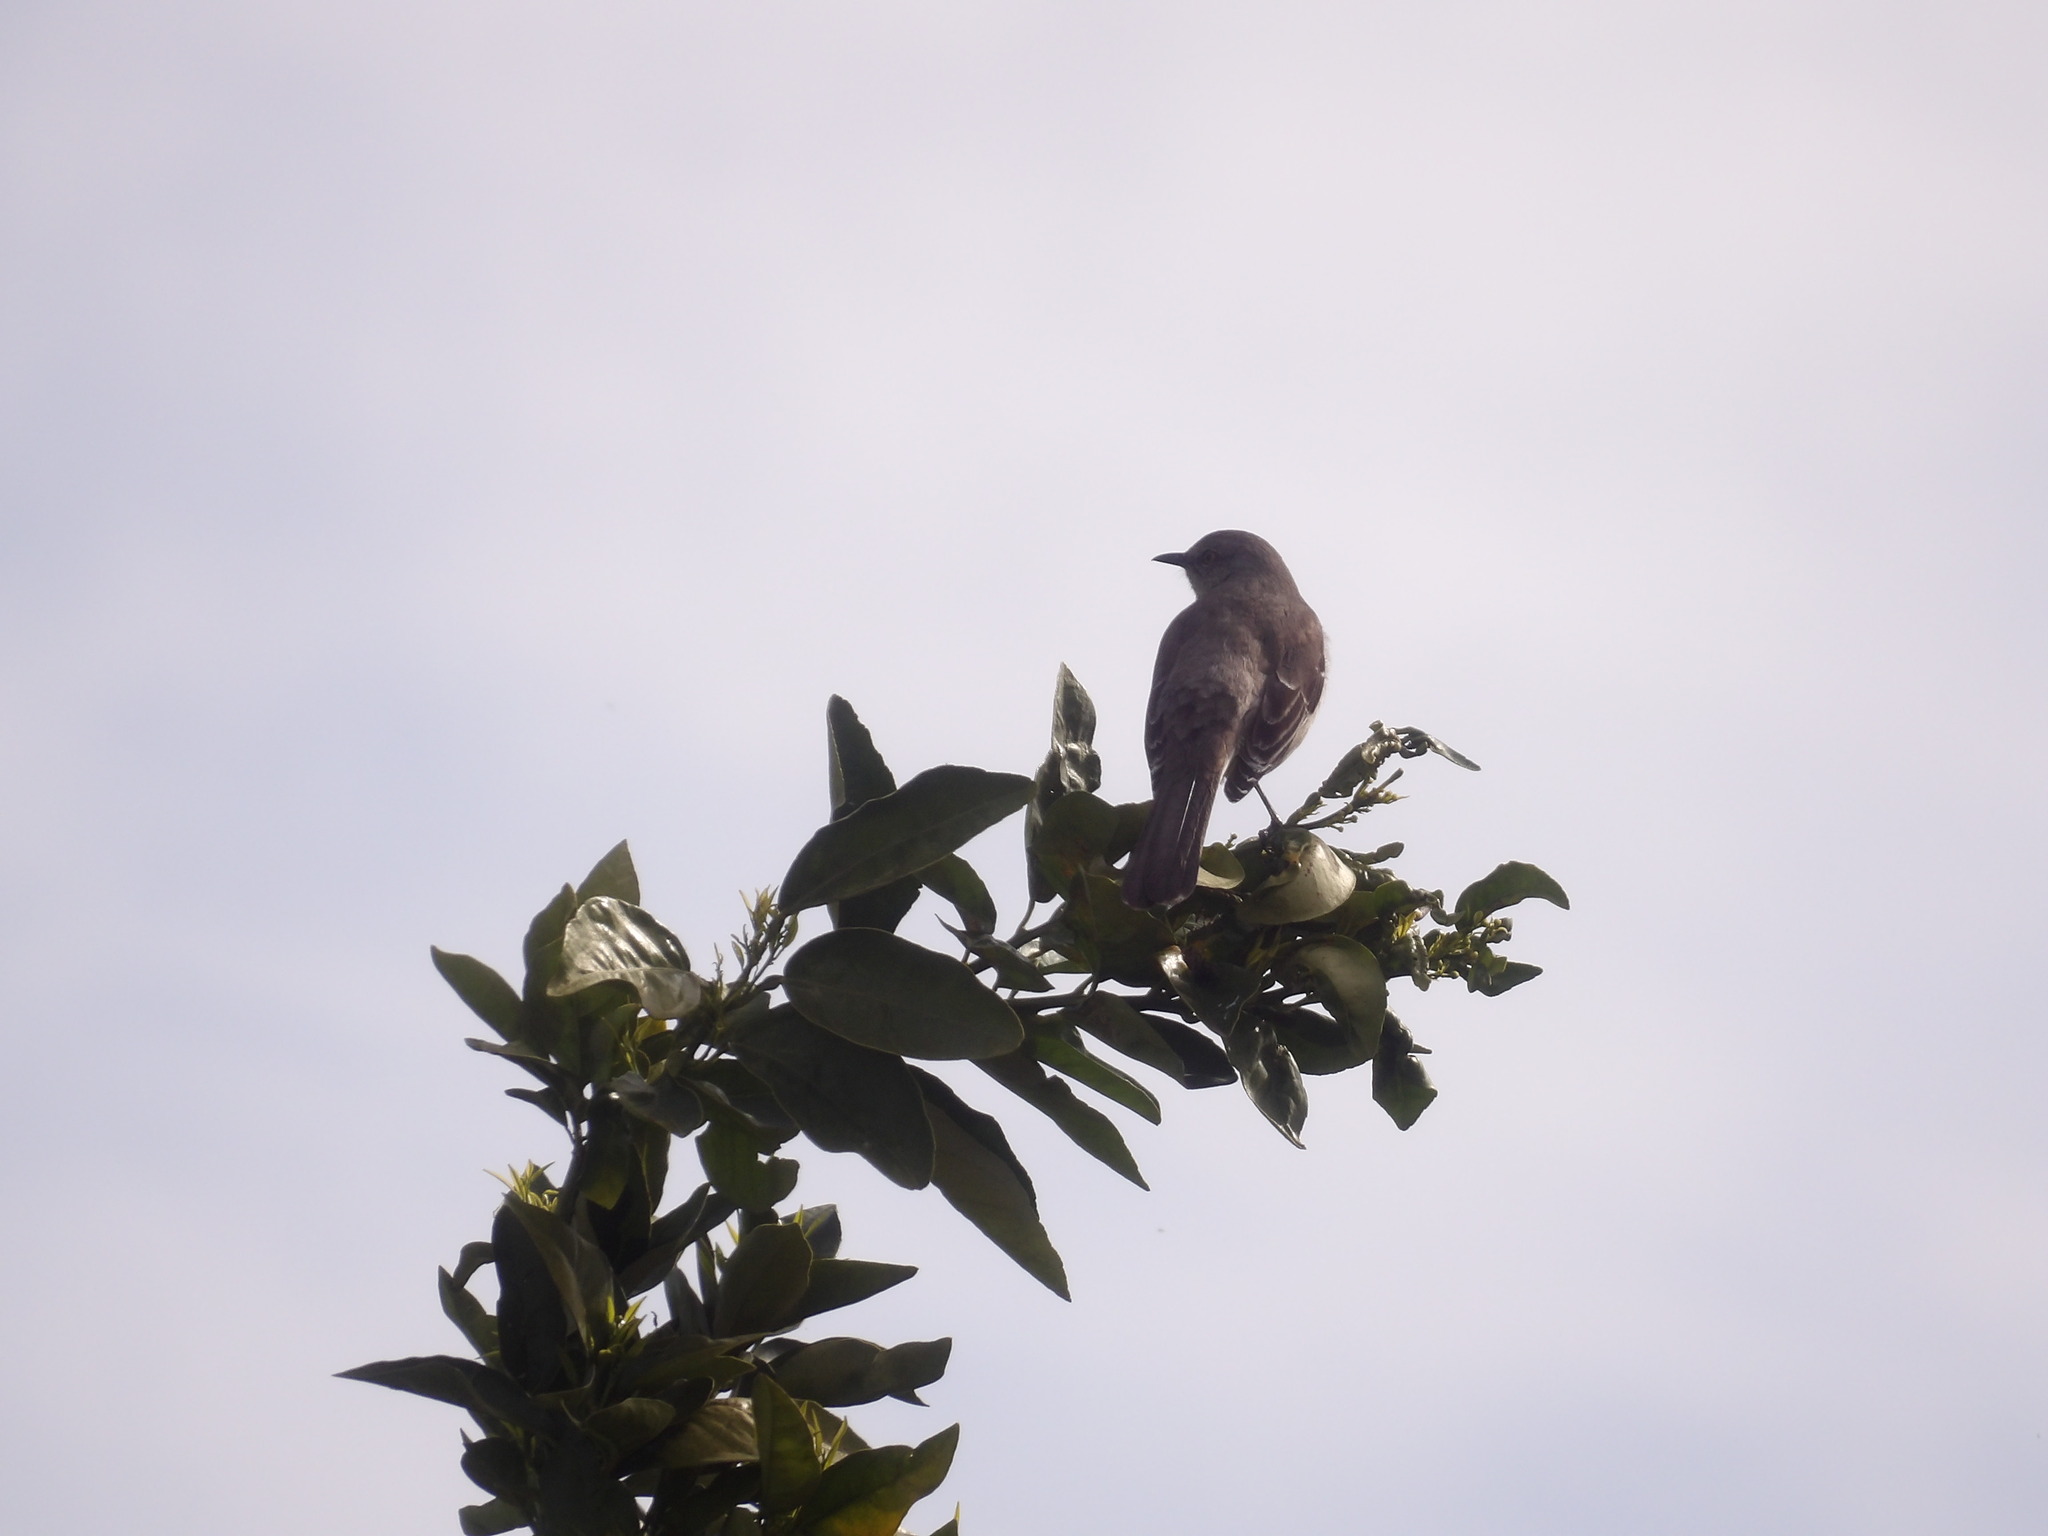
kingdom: Animalia
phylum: Chordata
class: Aves
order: Passeriformes
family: Mimidae
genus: Mimus
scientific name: Mimus polyglottos
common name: Northern mockingbird
